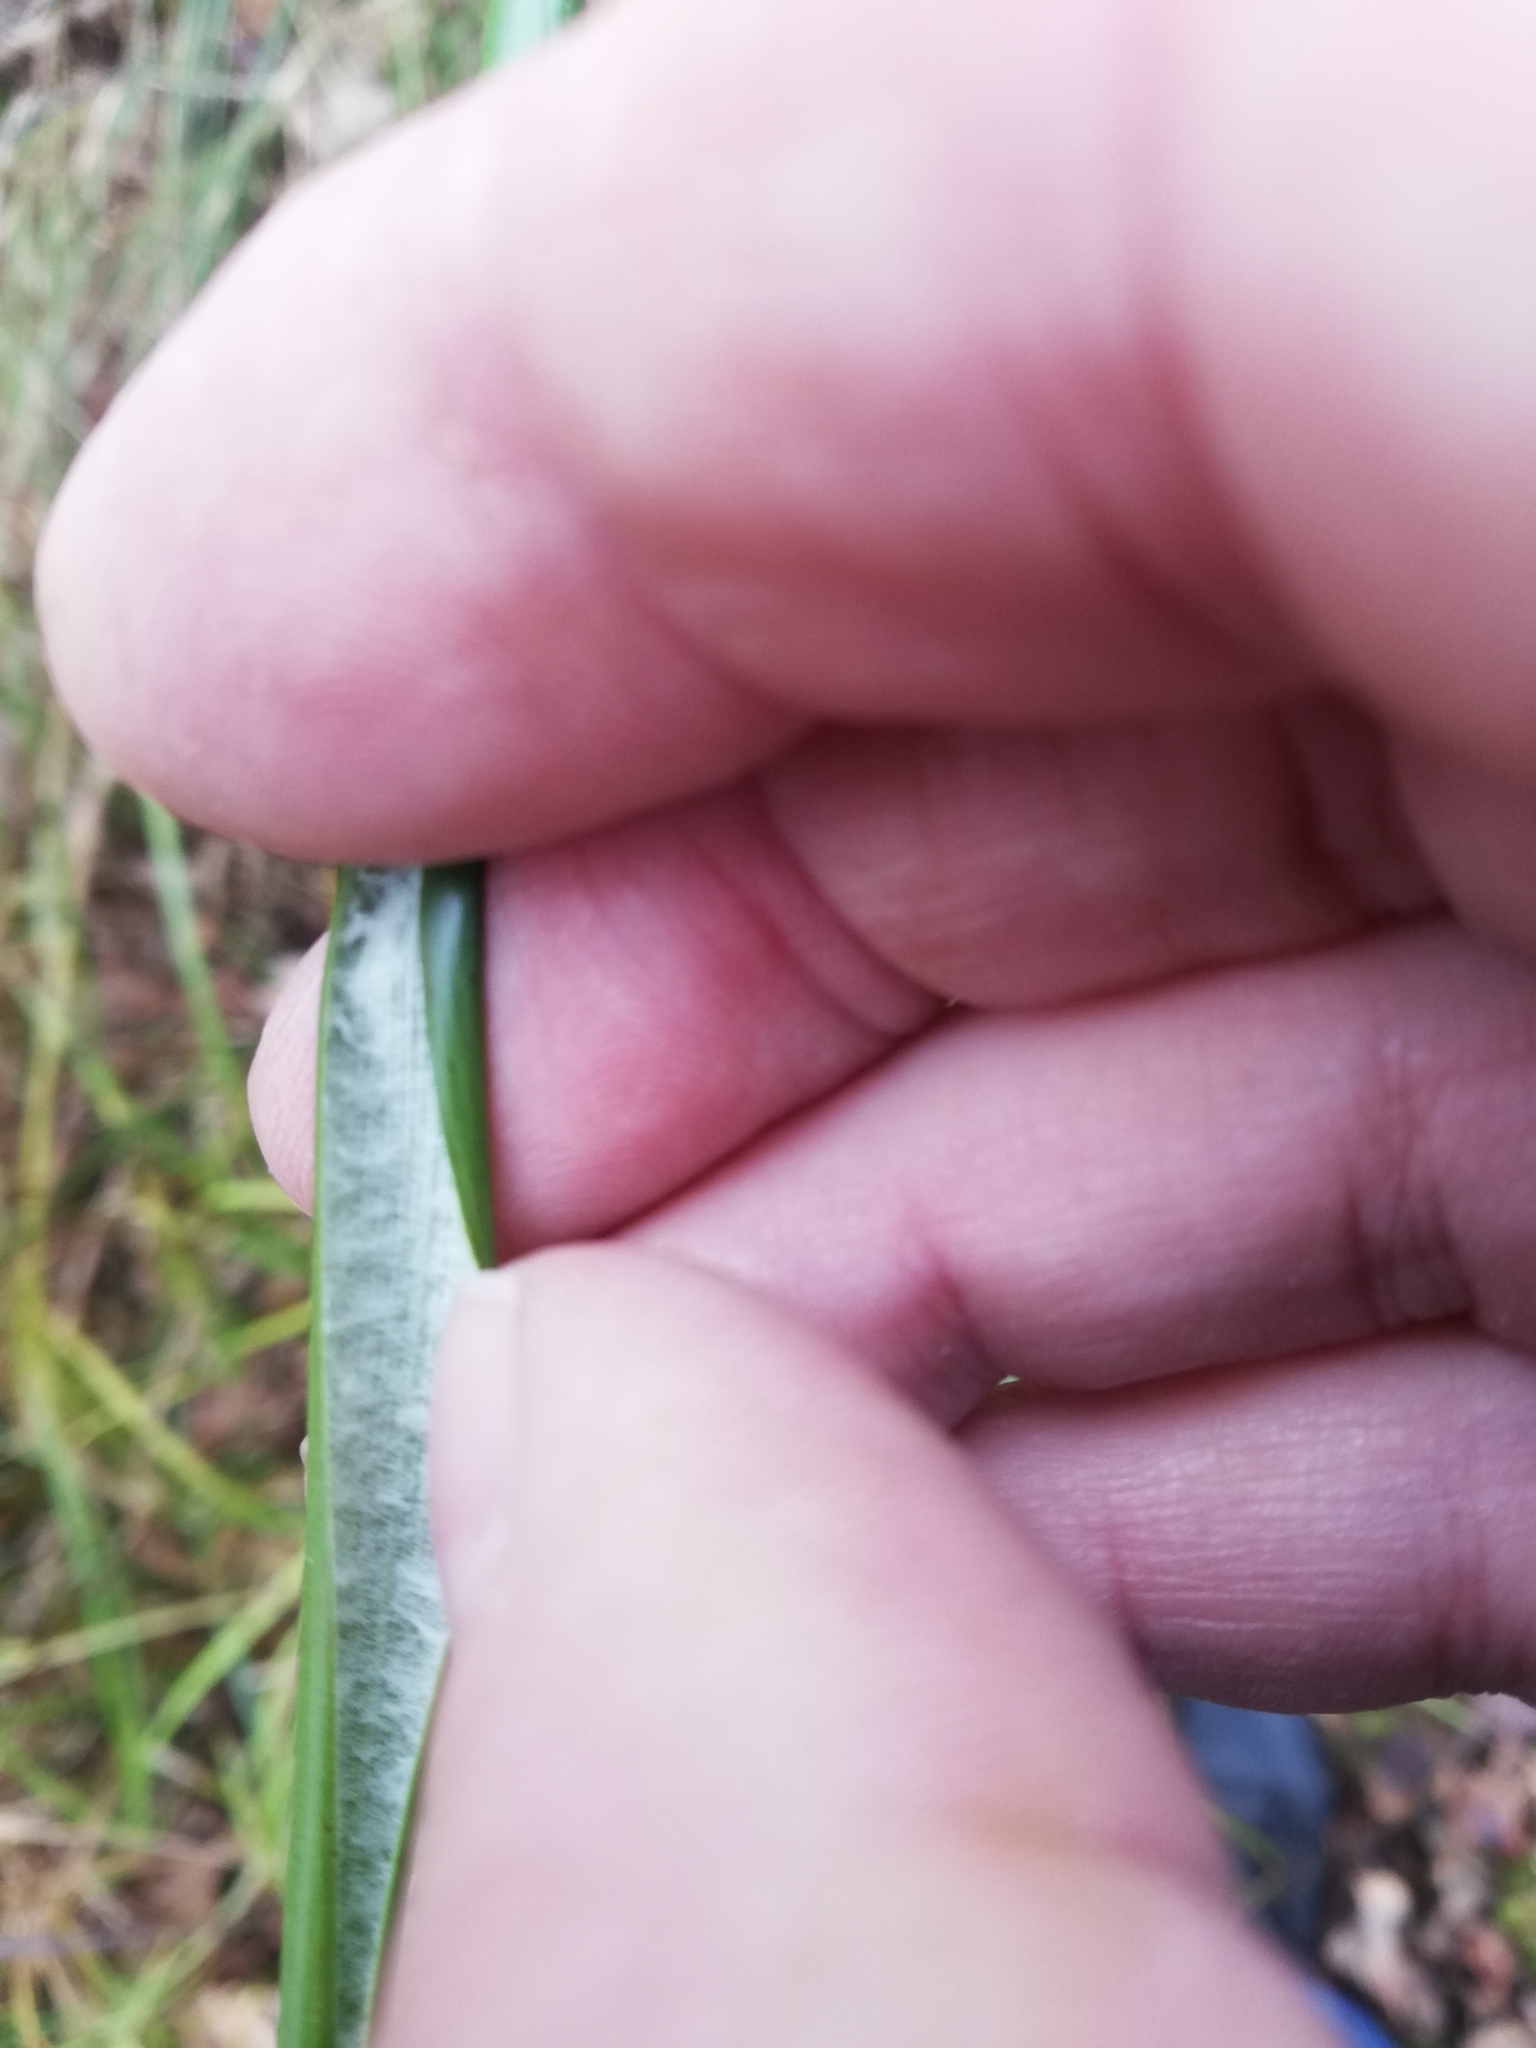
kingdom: Plantae
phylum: Tracheophyta
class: Liliopsida
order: Poales
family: Juncaceae
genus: Juncus
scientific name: Juncus effusus
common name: Soft rush
